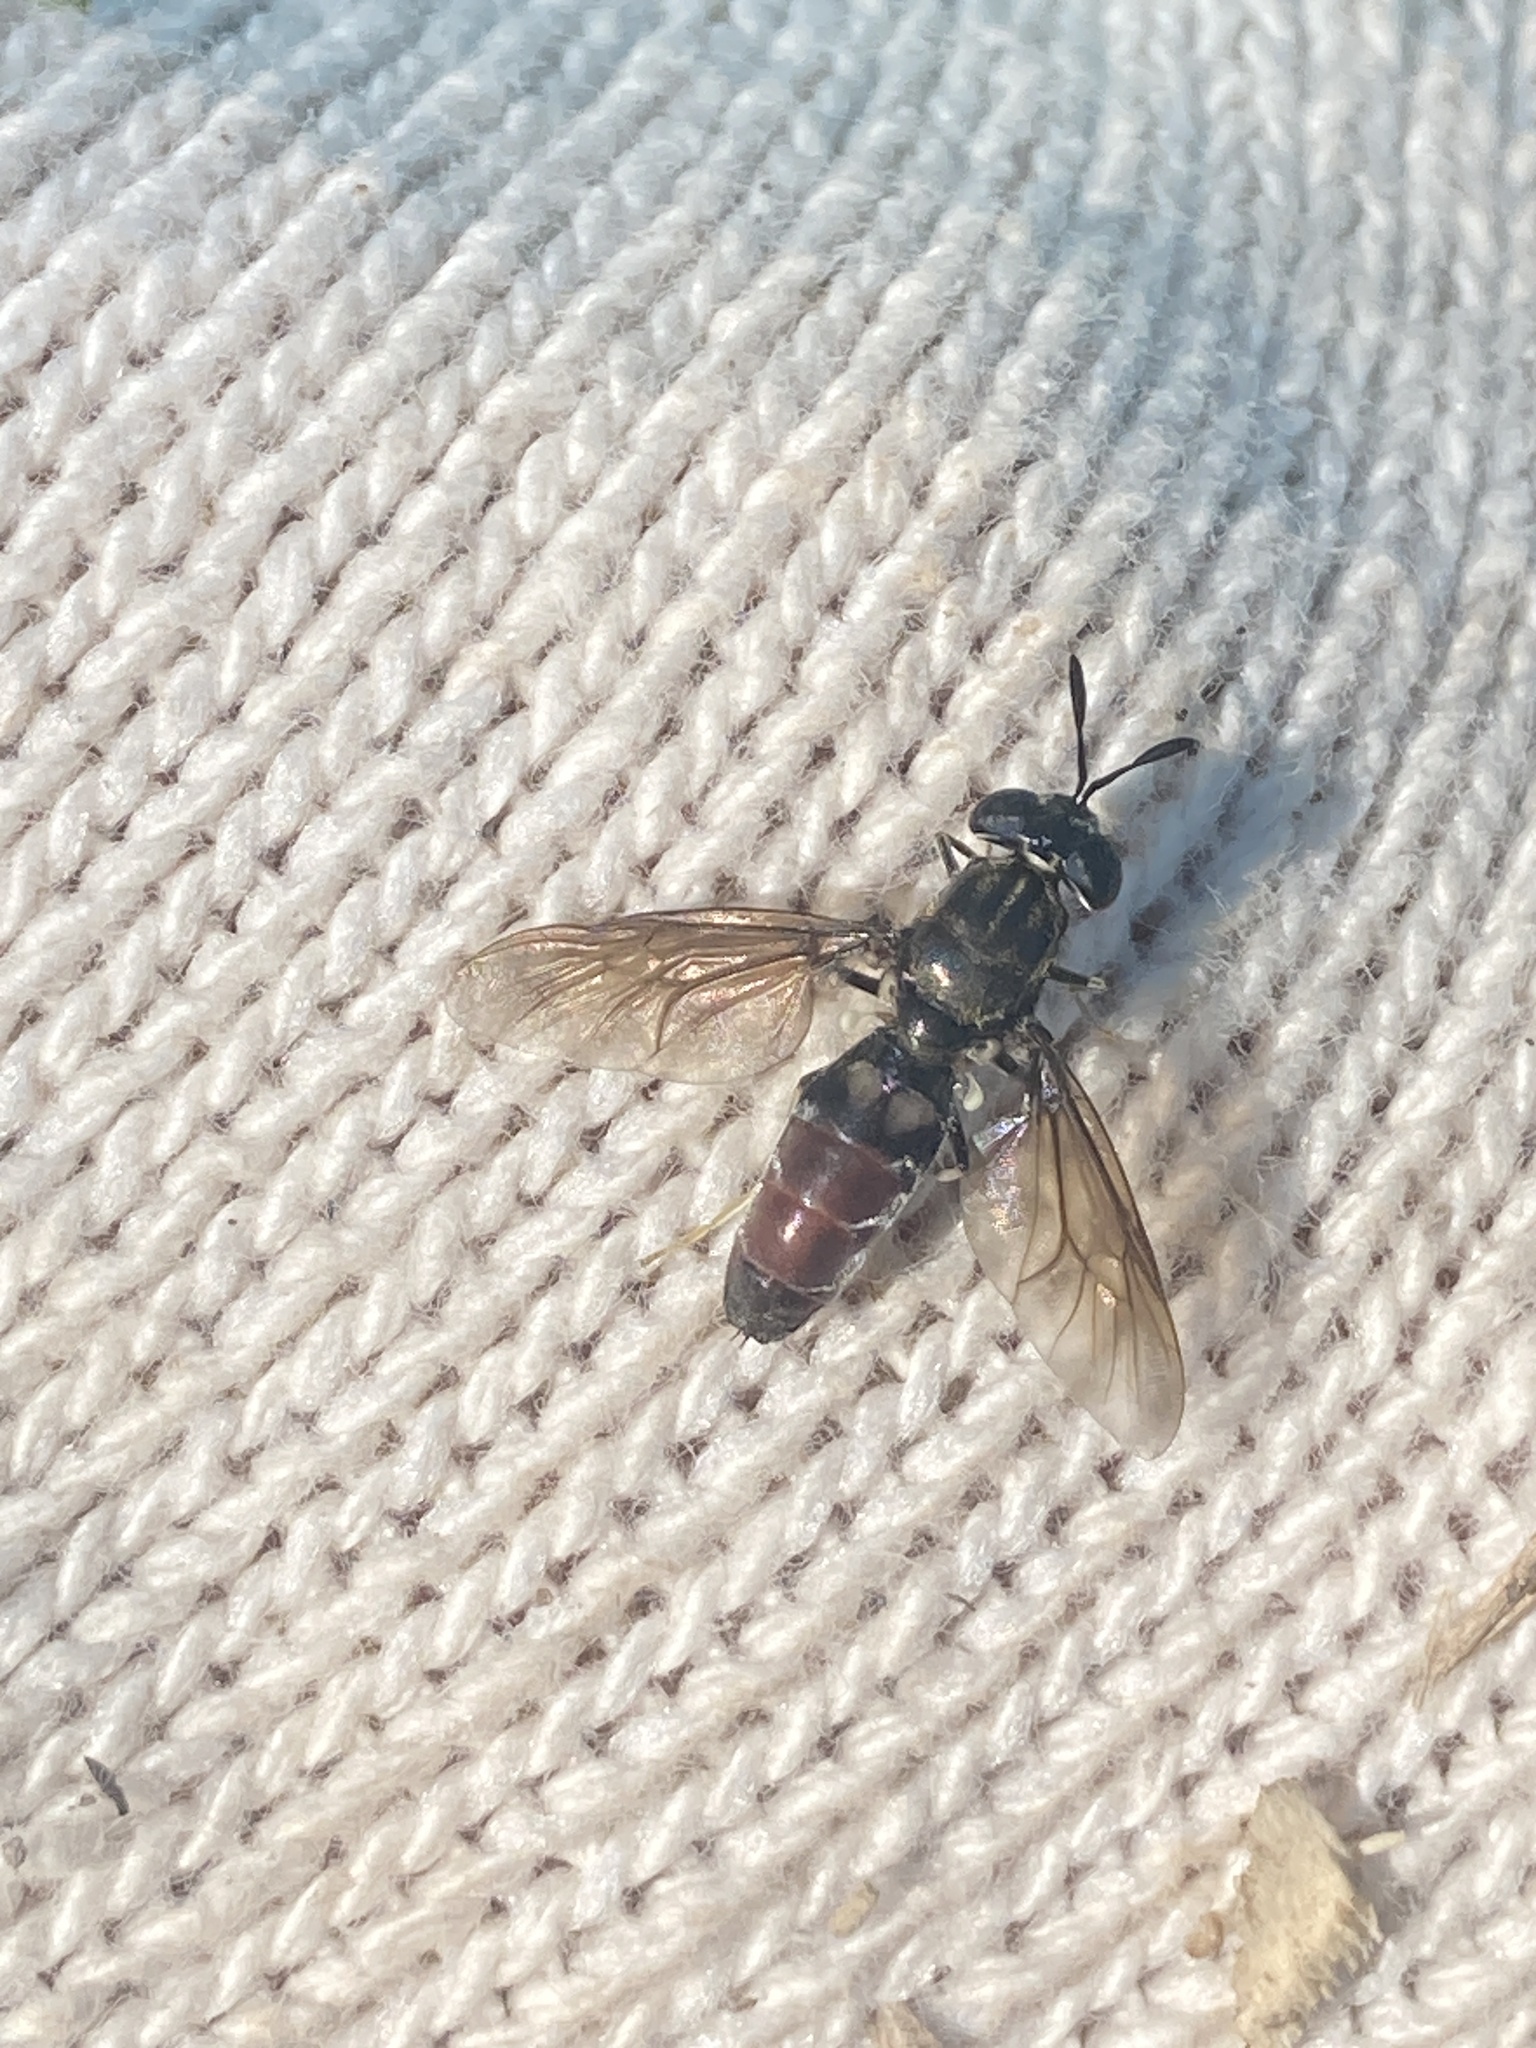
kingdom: Animalia
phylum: Arthropoda
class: Insecta
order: Diptera
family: Stratiomyidae
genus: Hermetia
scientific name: Hermetia illucens
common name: Black soldier fly
